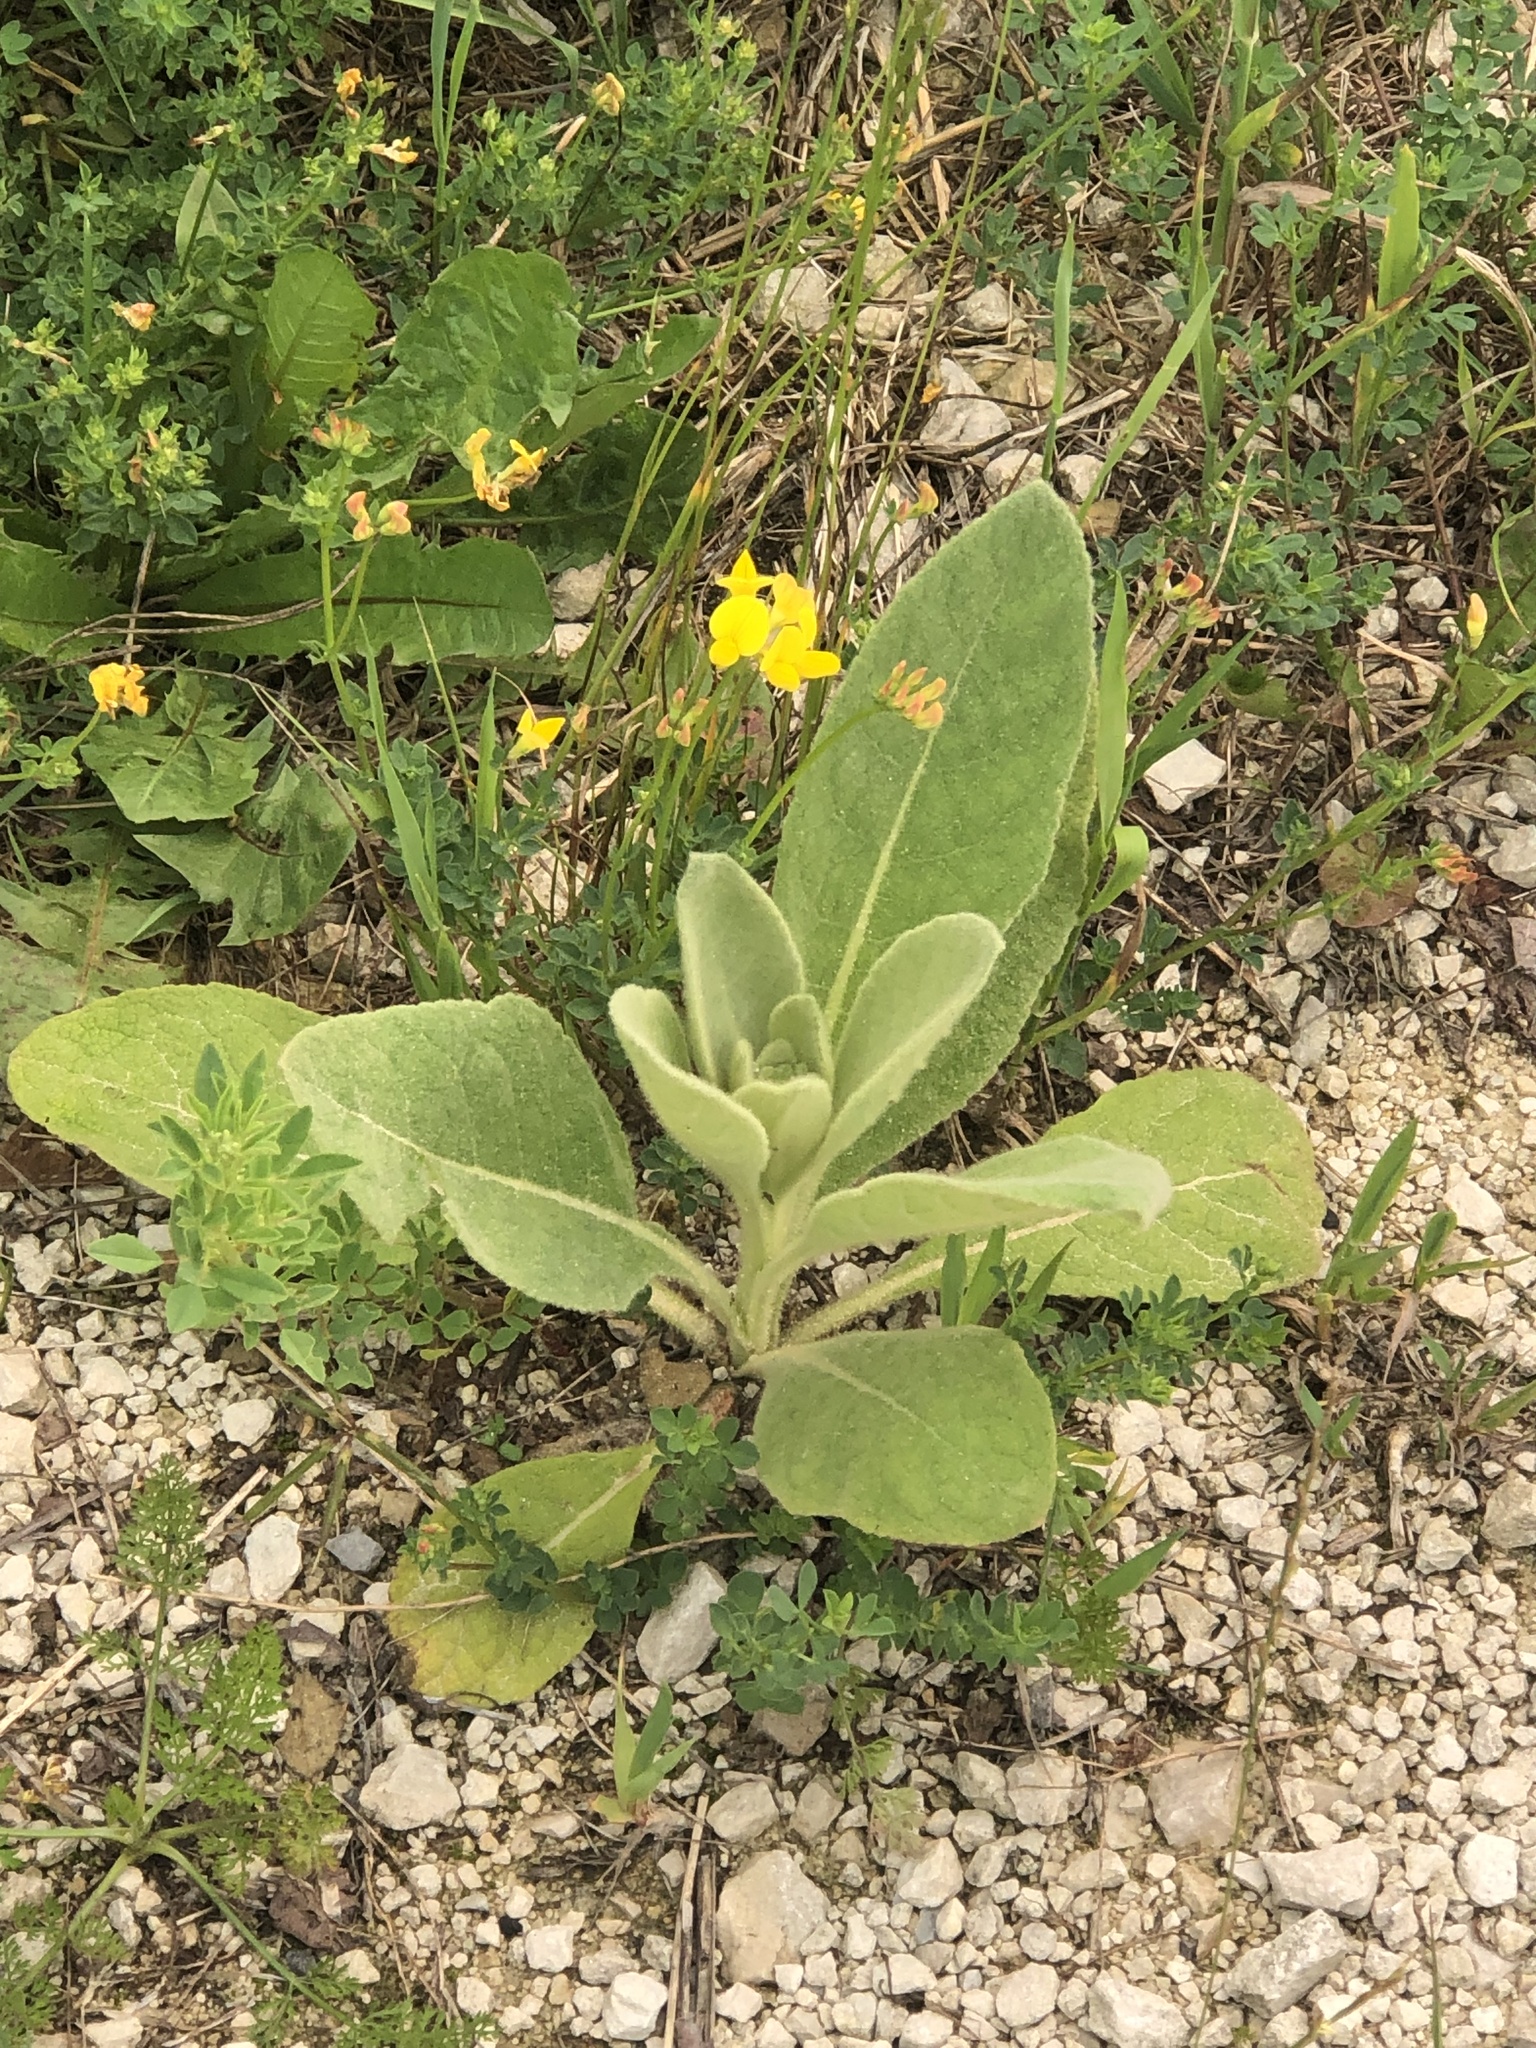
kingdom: Plantae
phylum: Tracheophyta
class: Magnoliopsida
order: Lamiales
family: Scrophulariaceae
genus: Verbascum
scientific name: Verbascum thapsus
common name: Common mullein
